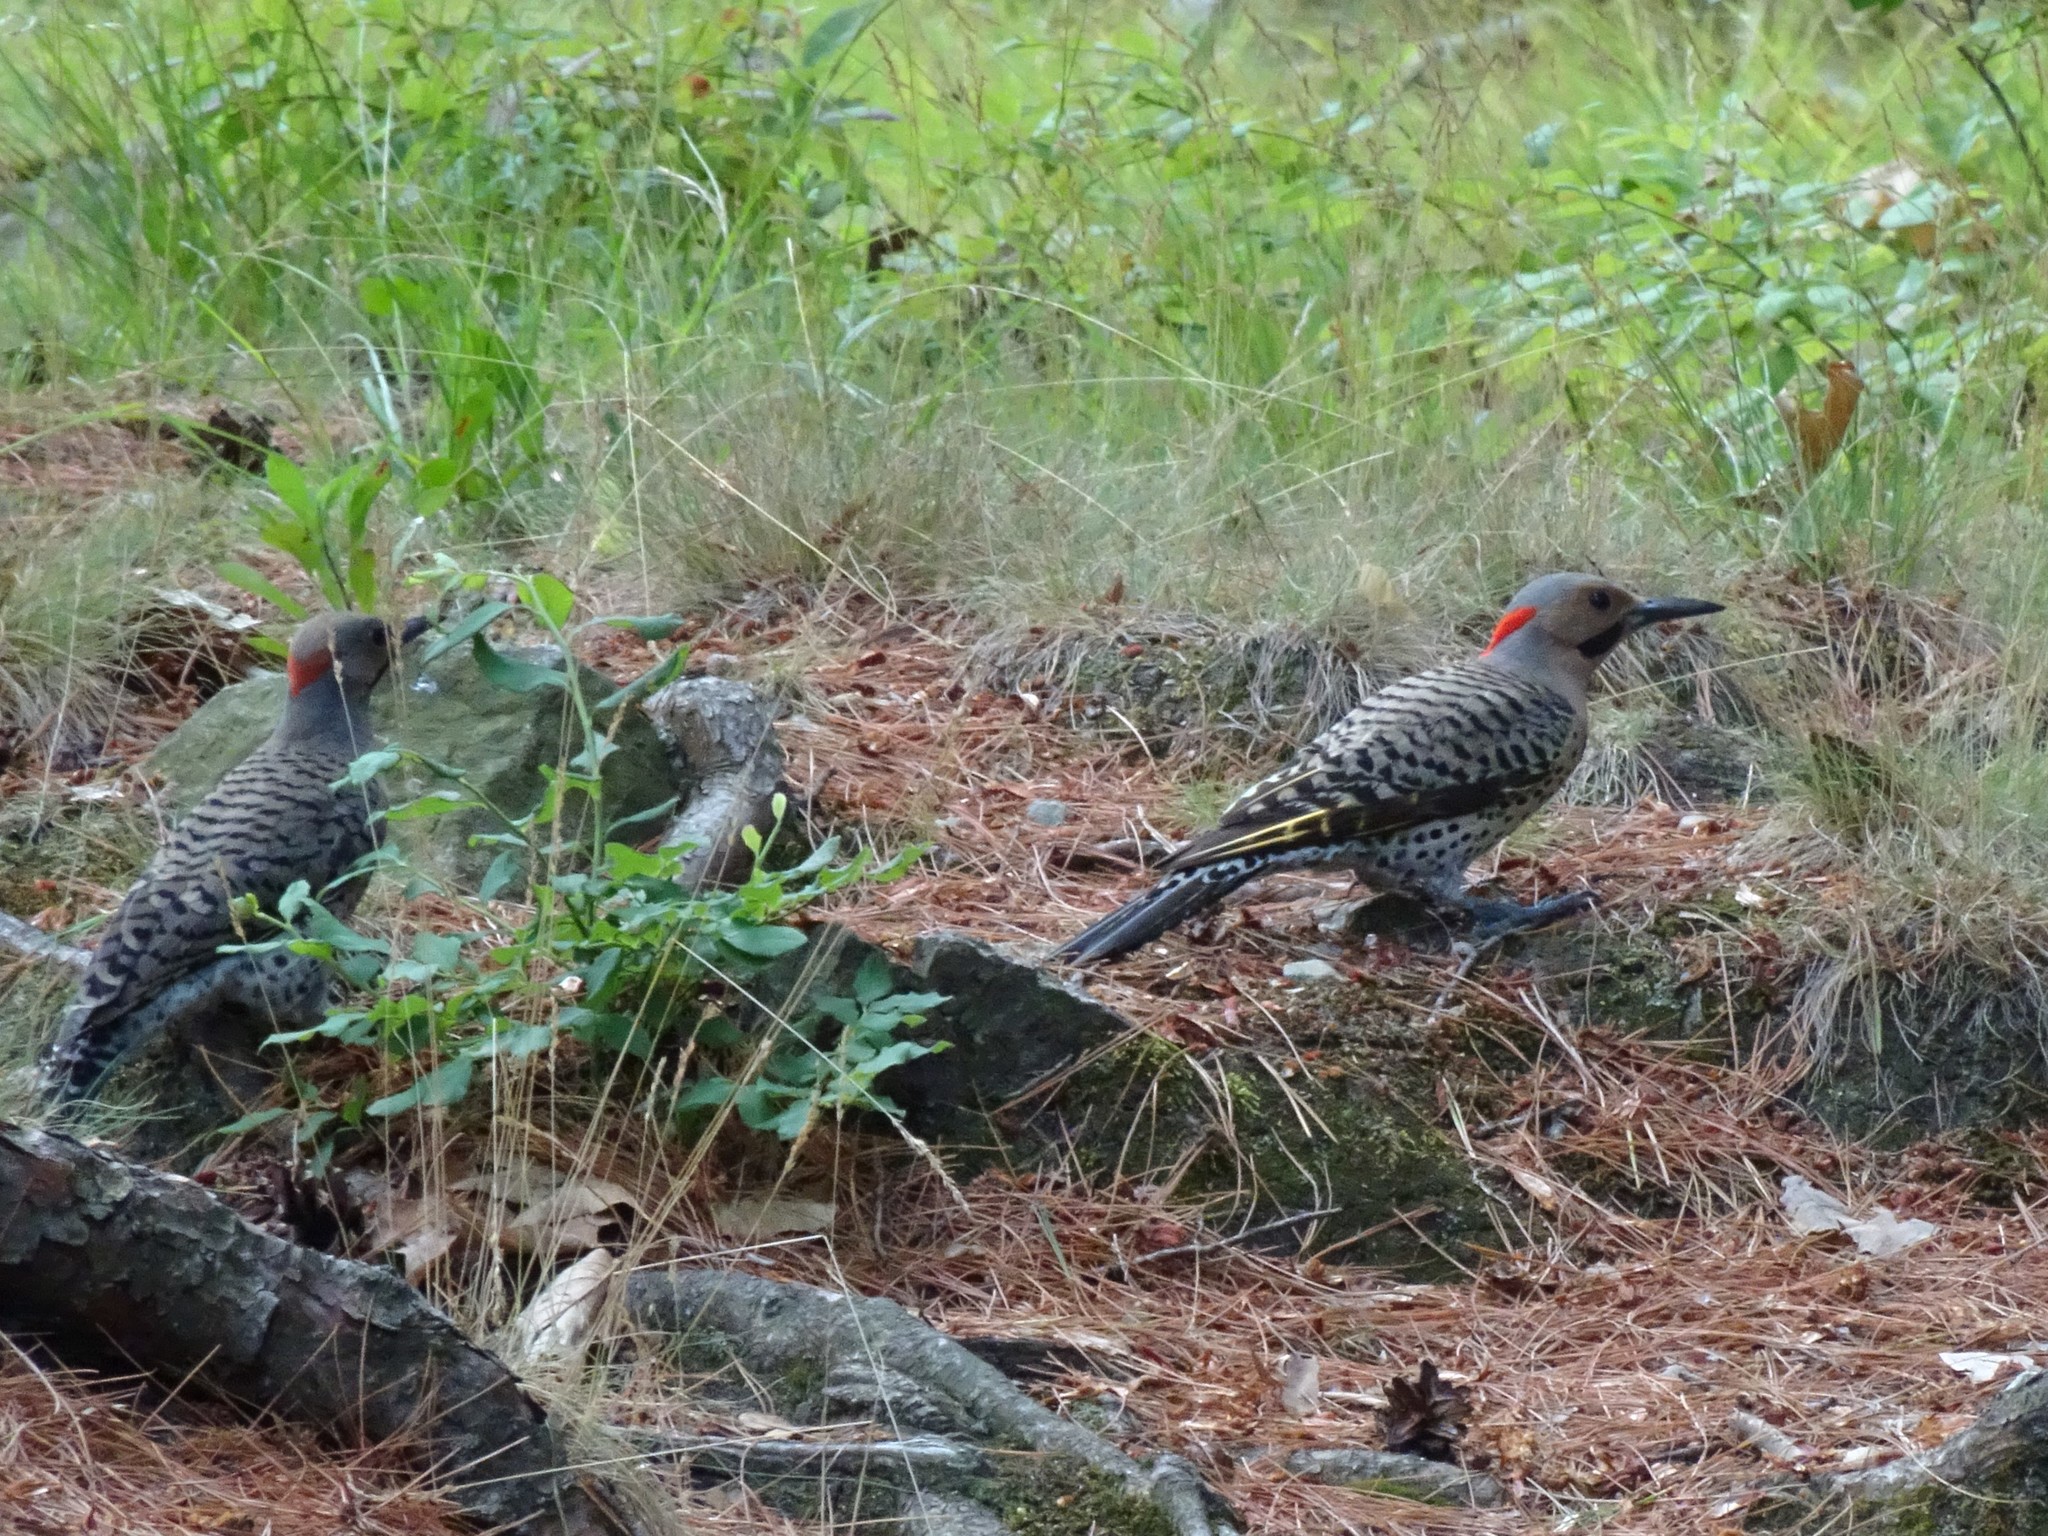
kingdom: Animalia
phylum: Chordata
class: Aves
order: Piciformes
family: Picidae
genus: Colaptes
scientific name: Colaptes auratus
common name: Northern flicker
